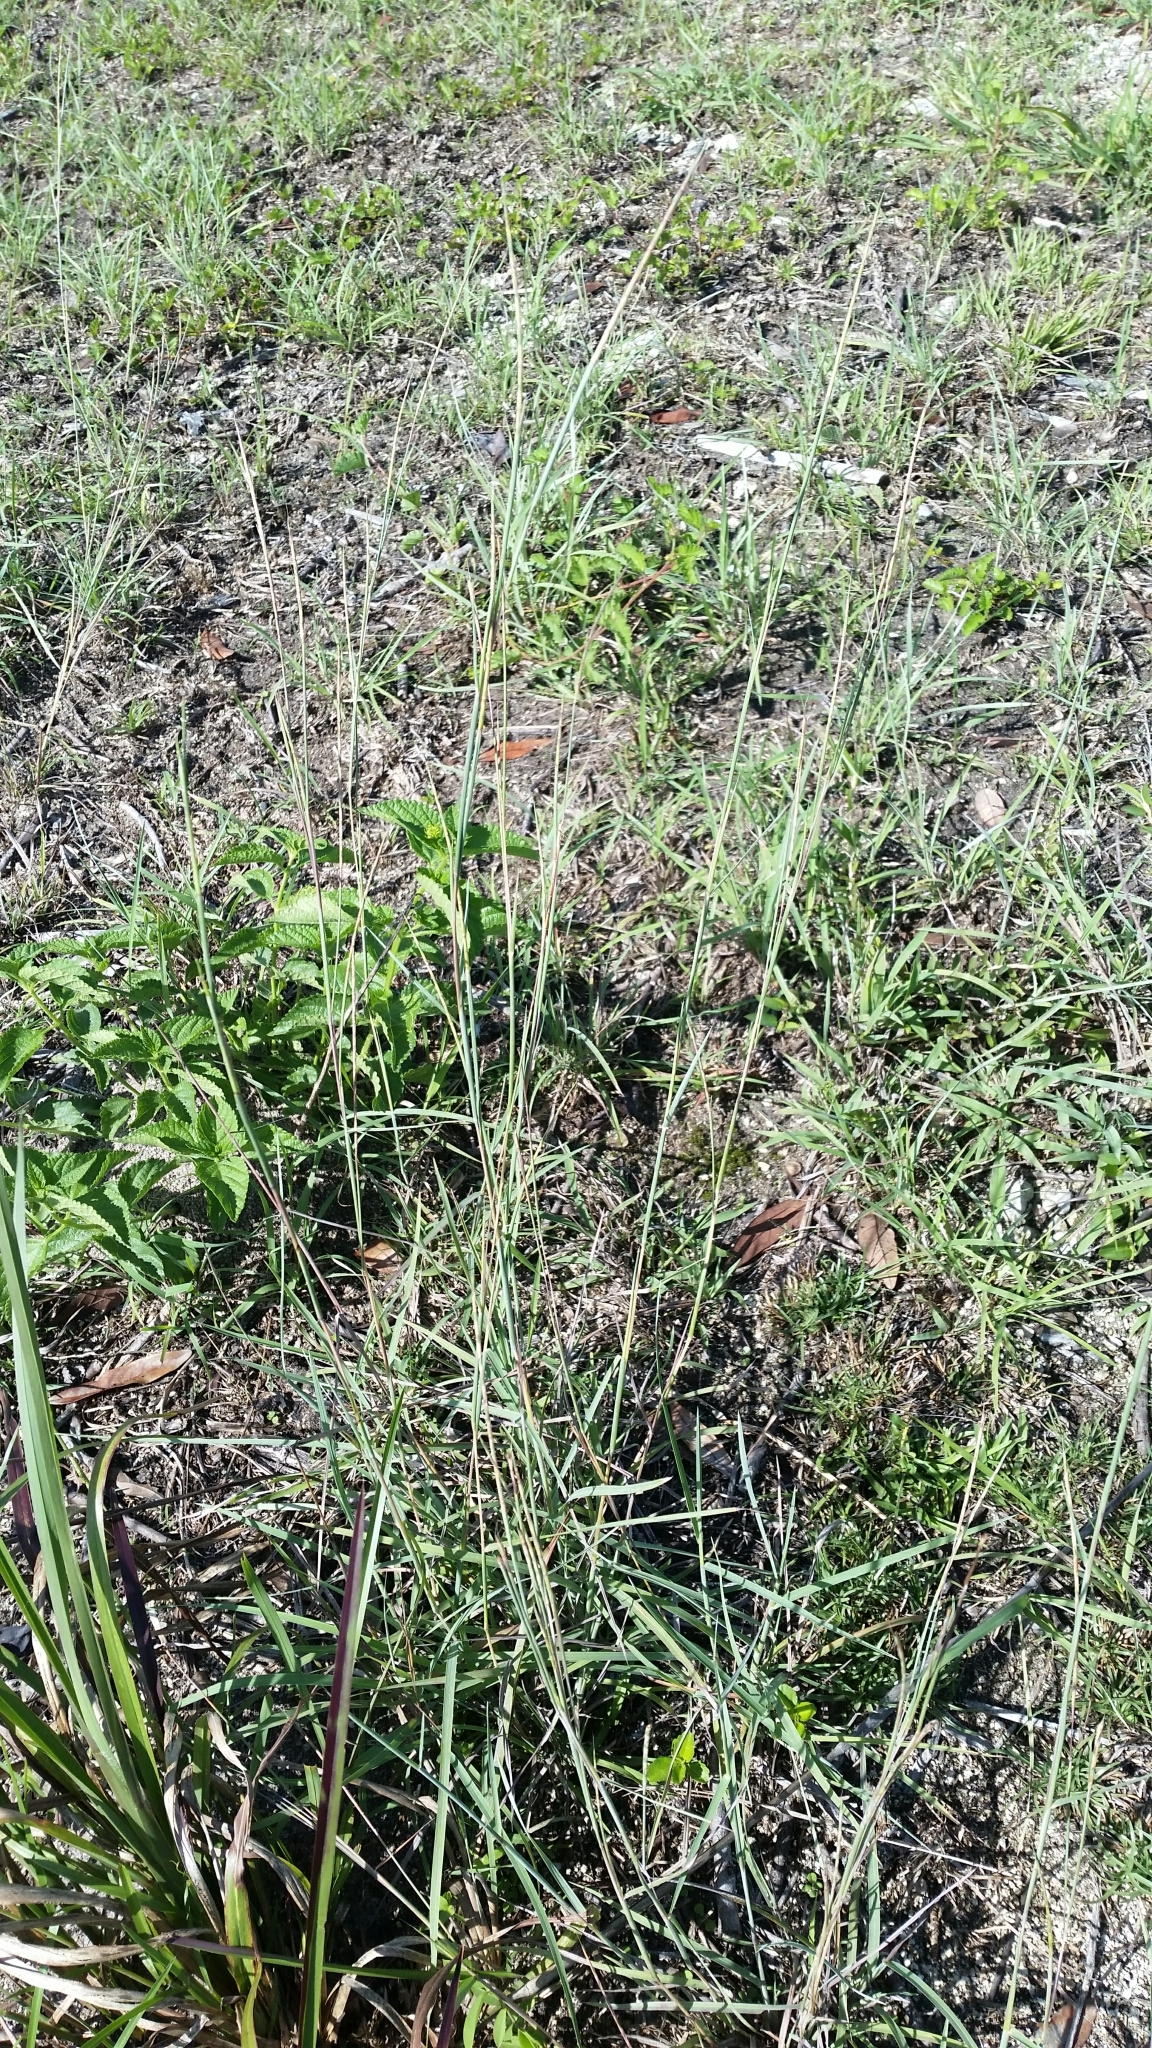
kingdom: Plantae
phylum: Tracheophyta
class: Liliopsida
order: Poales
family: Poaceae
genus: Schizachyrium
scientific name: Schizachyrium sanguineum
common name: Crimson bluestem
